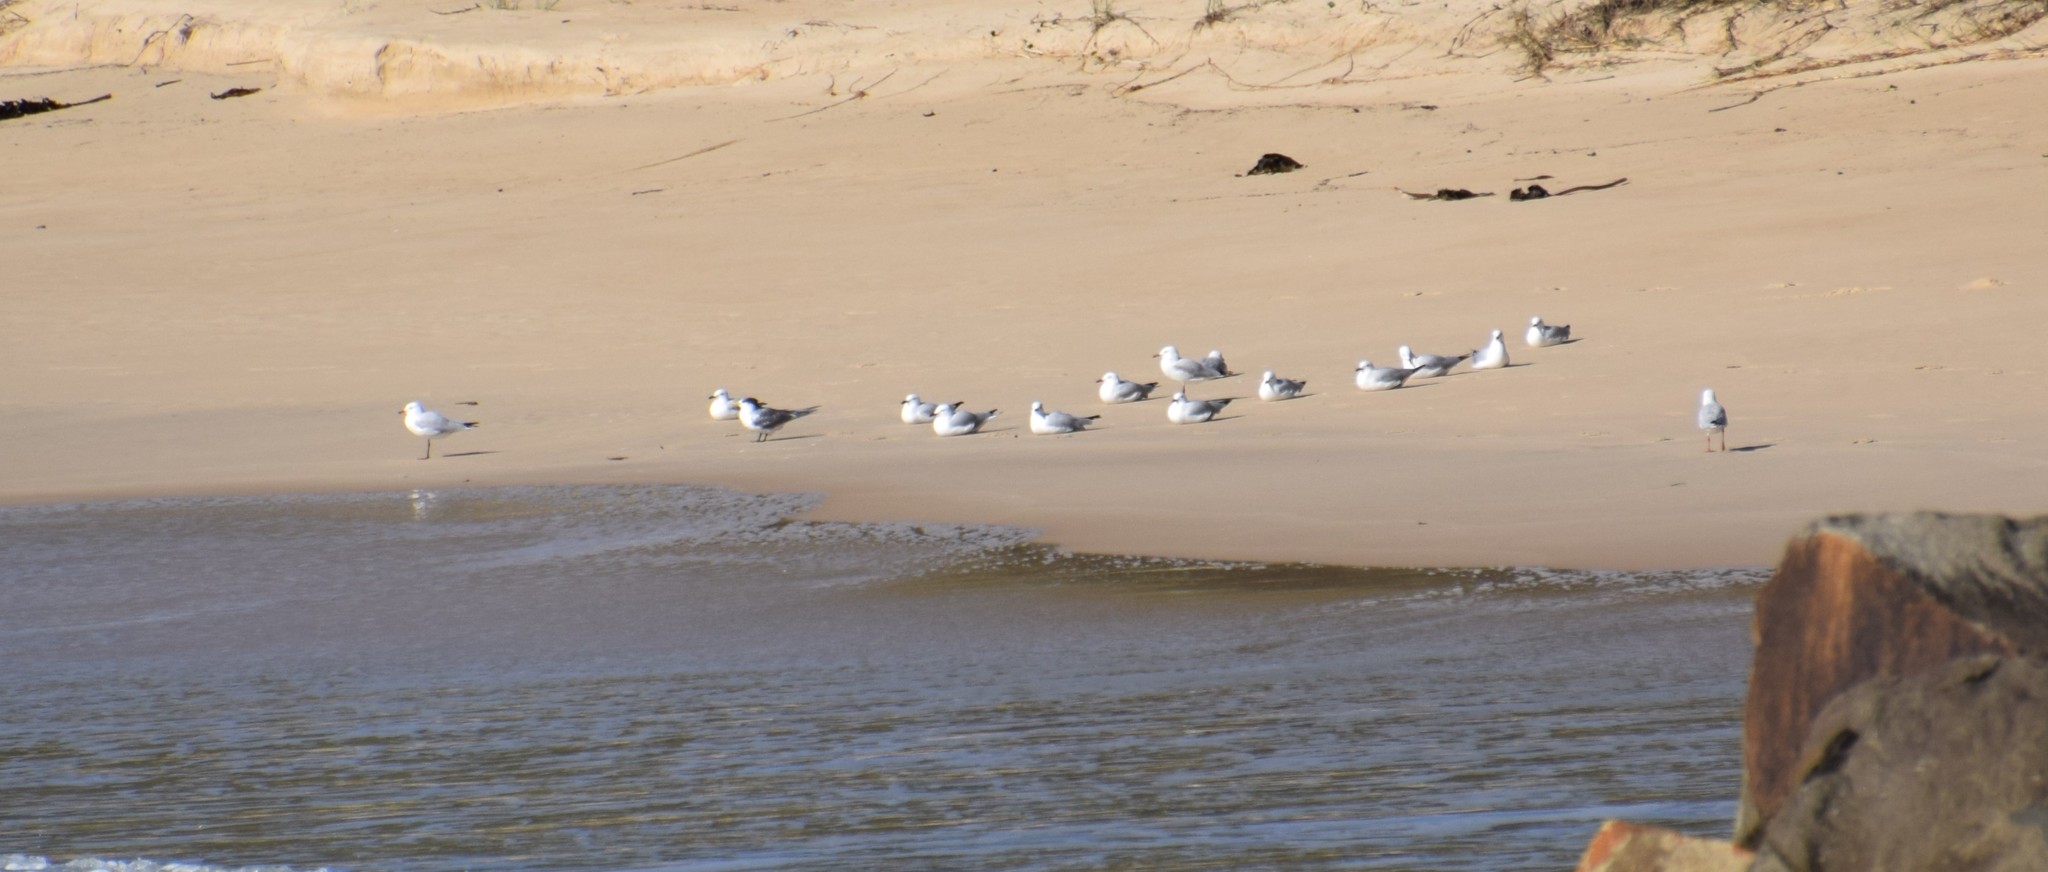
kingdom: Animalia
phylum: Chordata
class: Aves
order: Charadriiformes
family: Laridae
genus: Chroicocephalus
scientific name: Chroicocephalus novaehollandiae
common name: Silver gull
